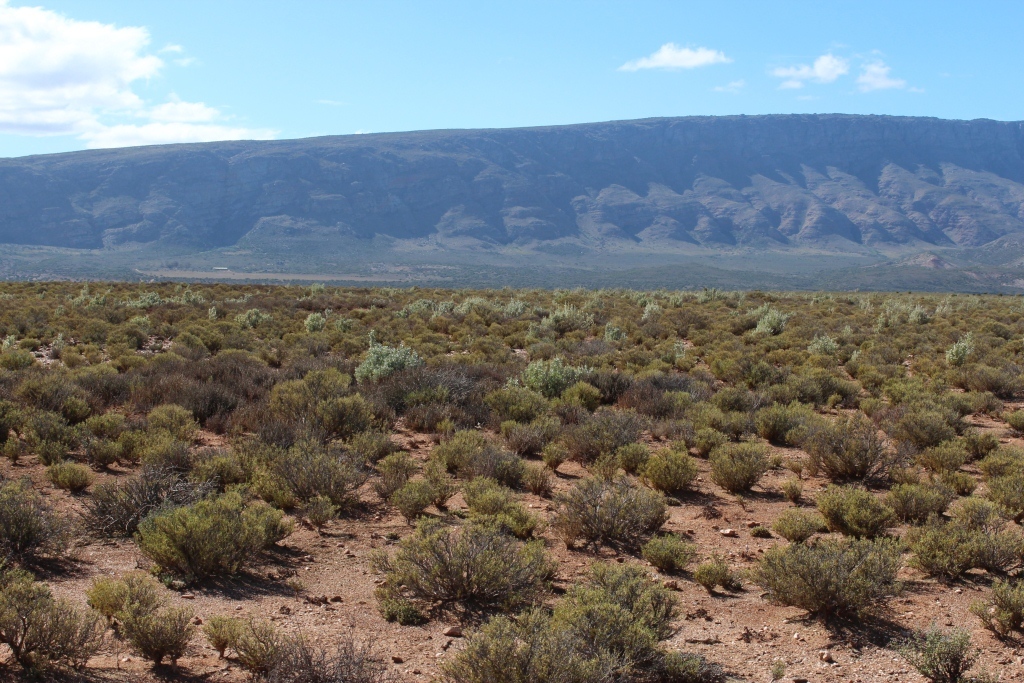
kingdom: Plantae
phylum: Tracheophyta
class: Magnoliopsida
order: Caryophyllales
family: Amaranthaceae
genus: Atriplex
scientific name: Atriplex nummularia
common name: Bluegreen saltbush
